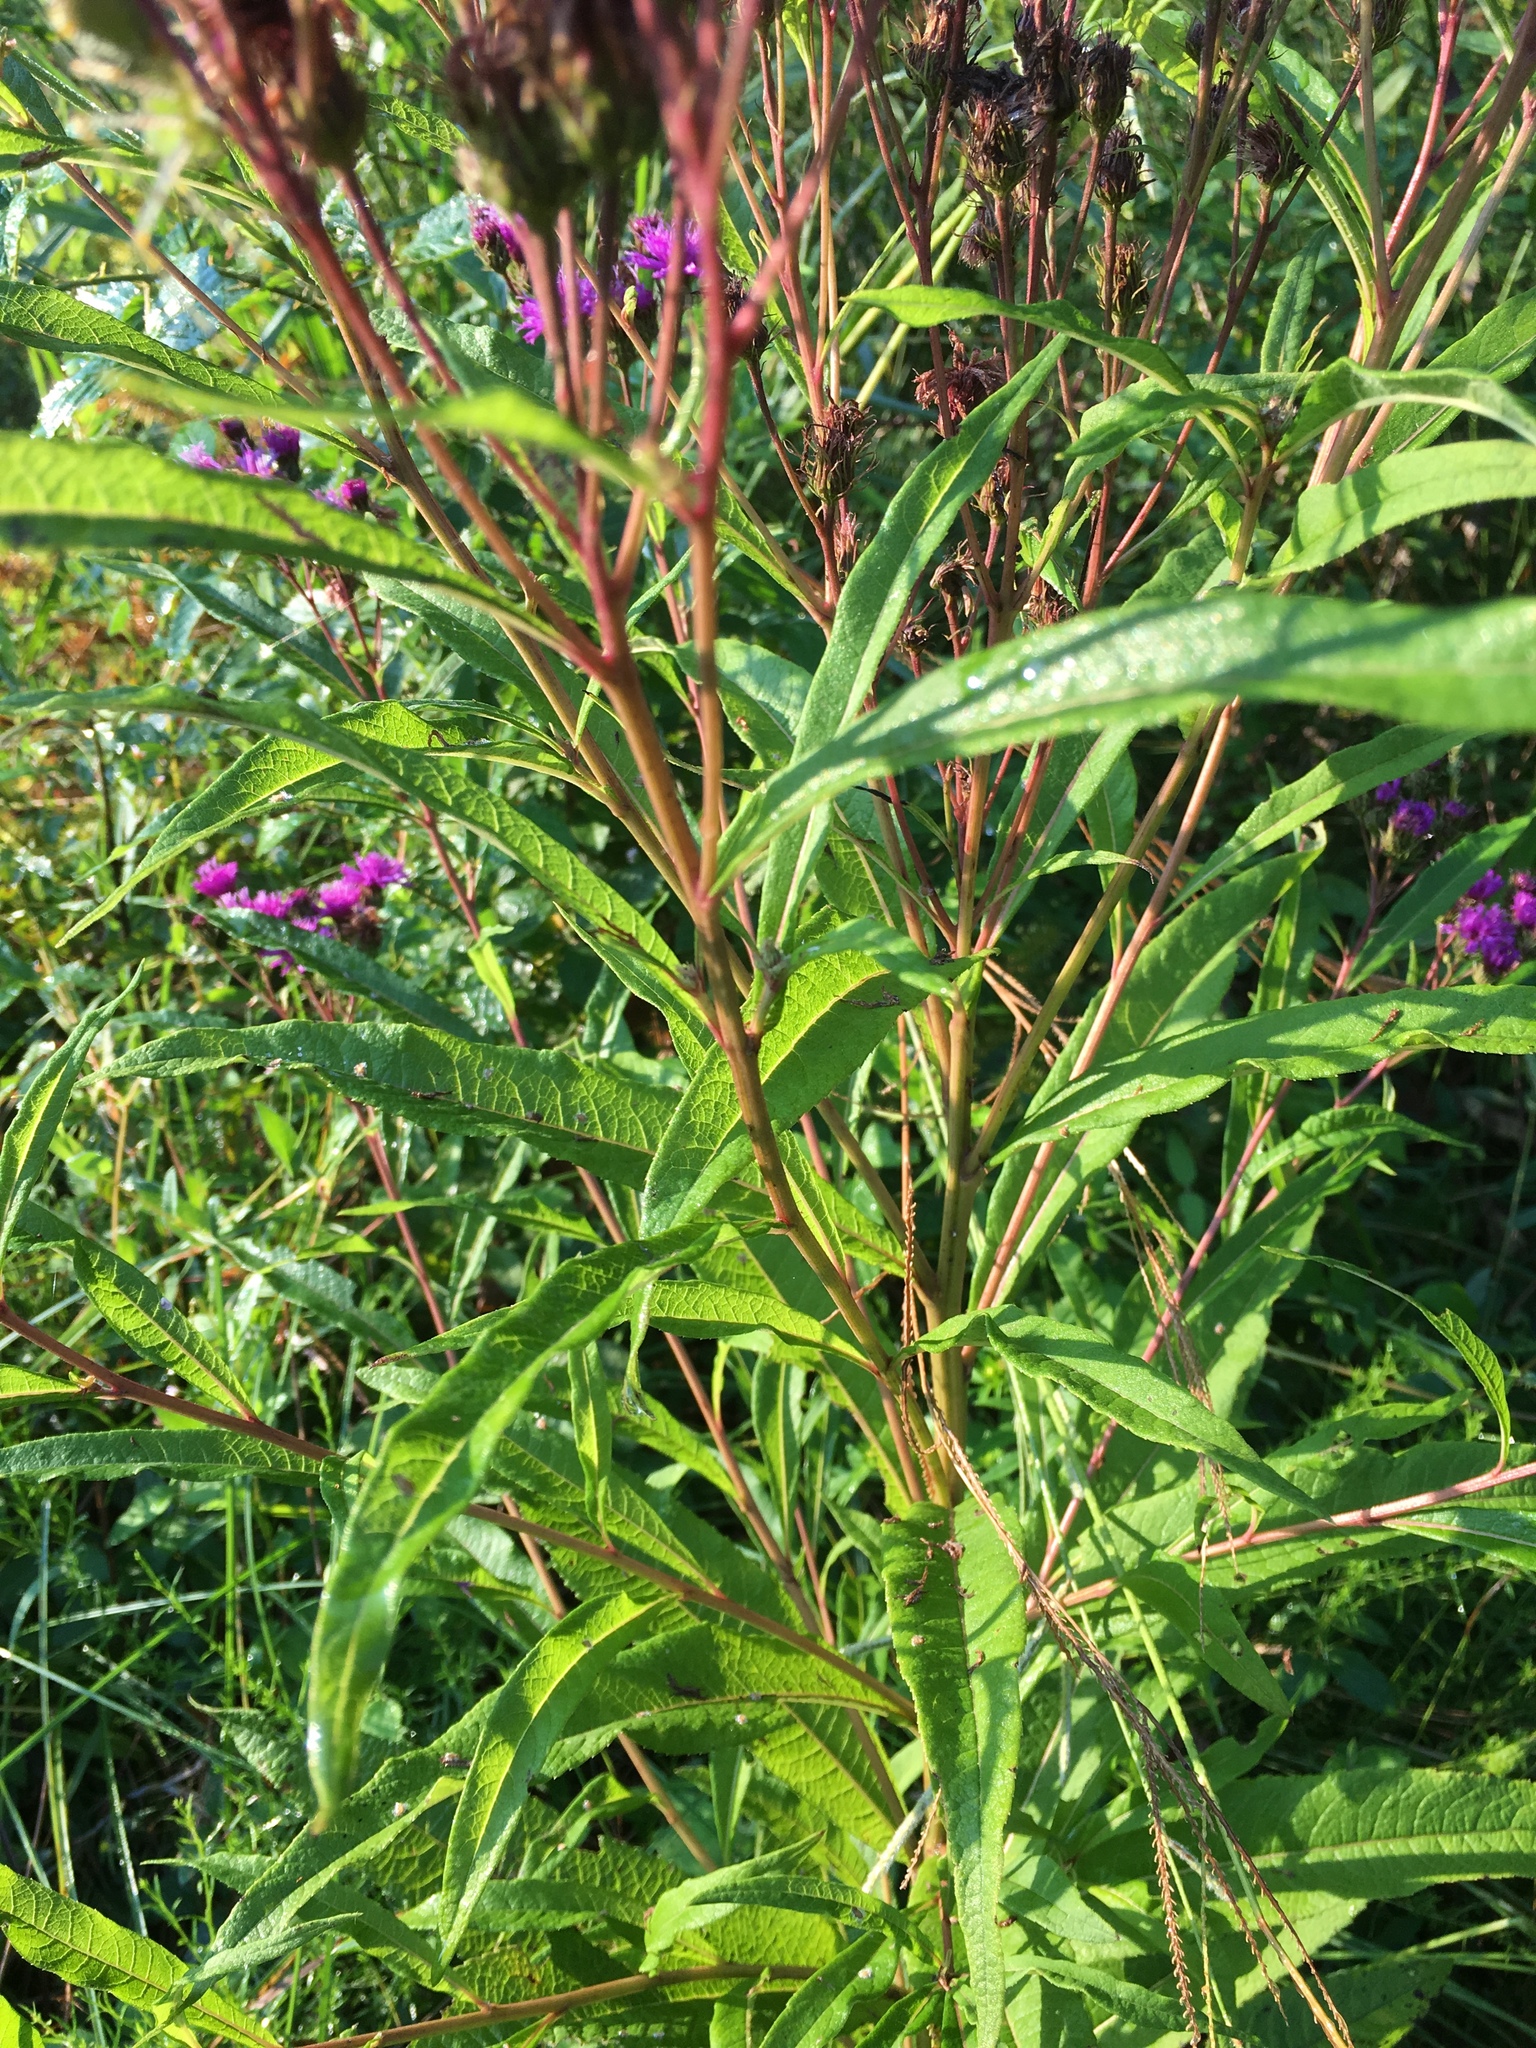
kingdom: Plantae
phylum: Tracheophyta
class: Magnoliopsida
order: Asterales
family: Asteraceae
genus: Vernonia
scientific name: Vernonia noveboracensis
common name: New york ironweed
